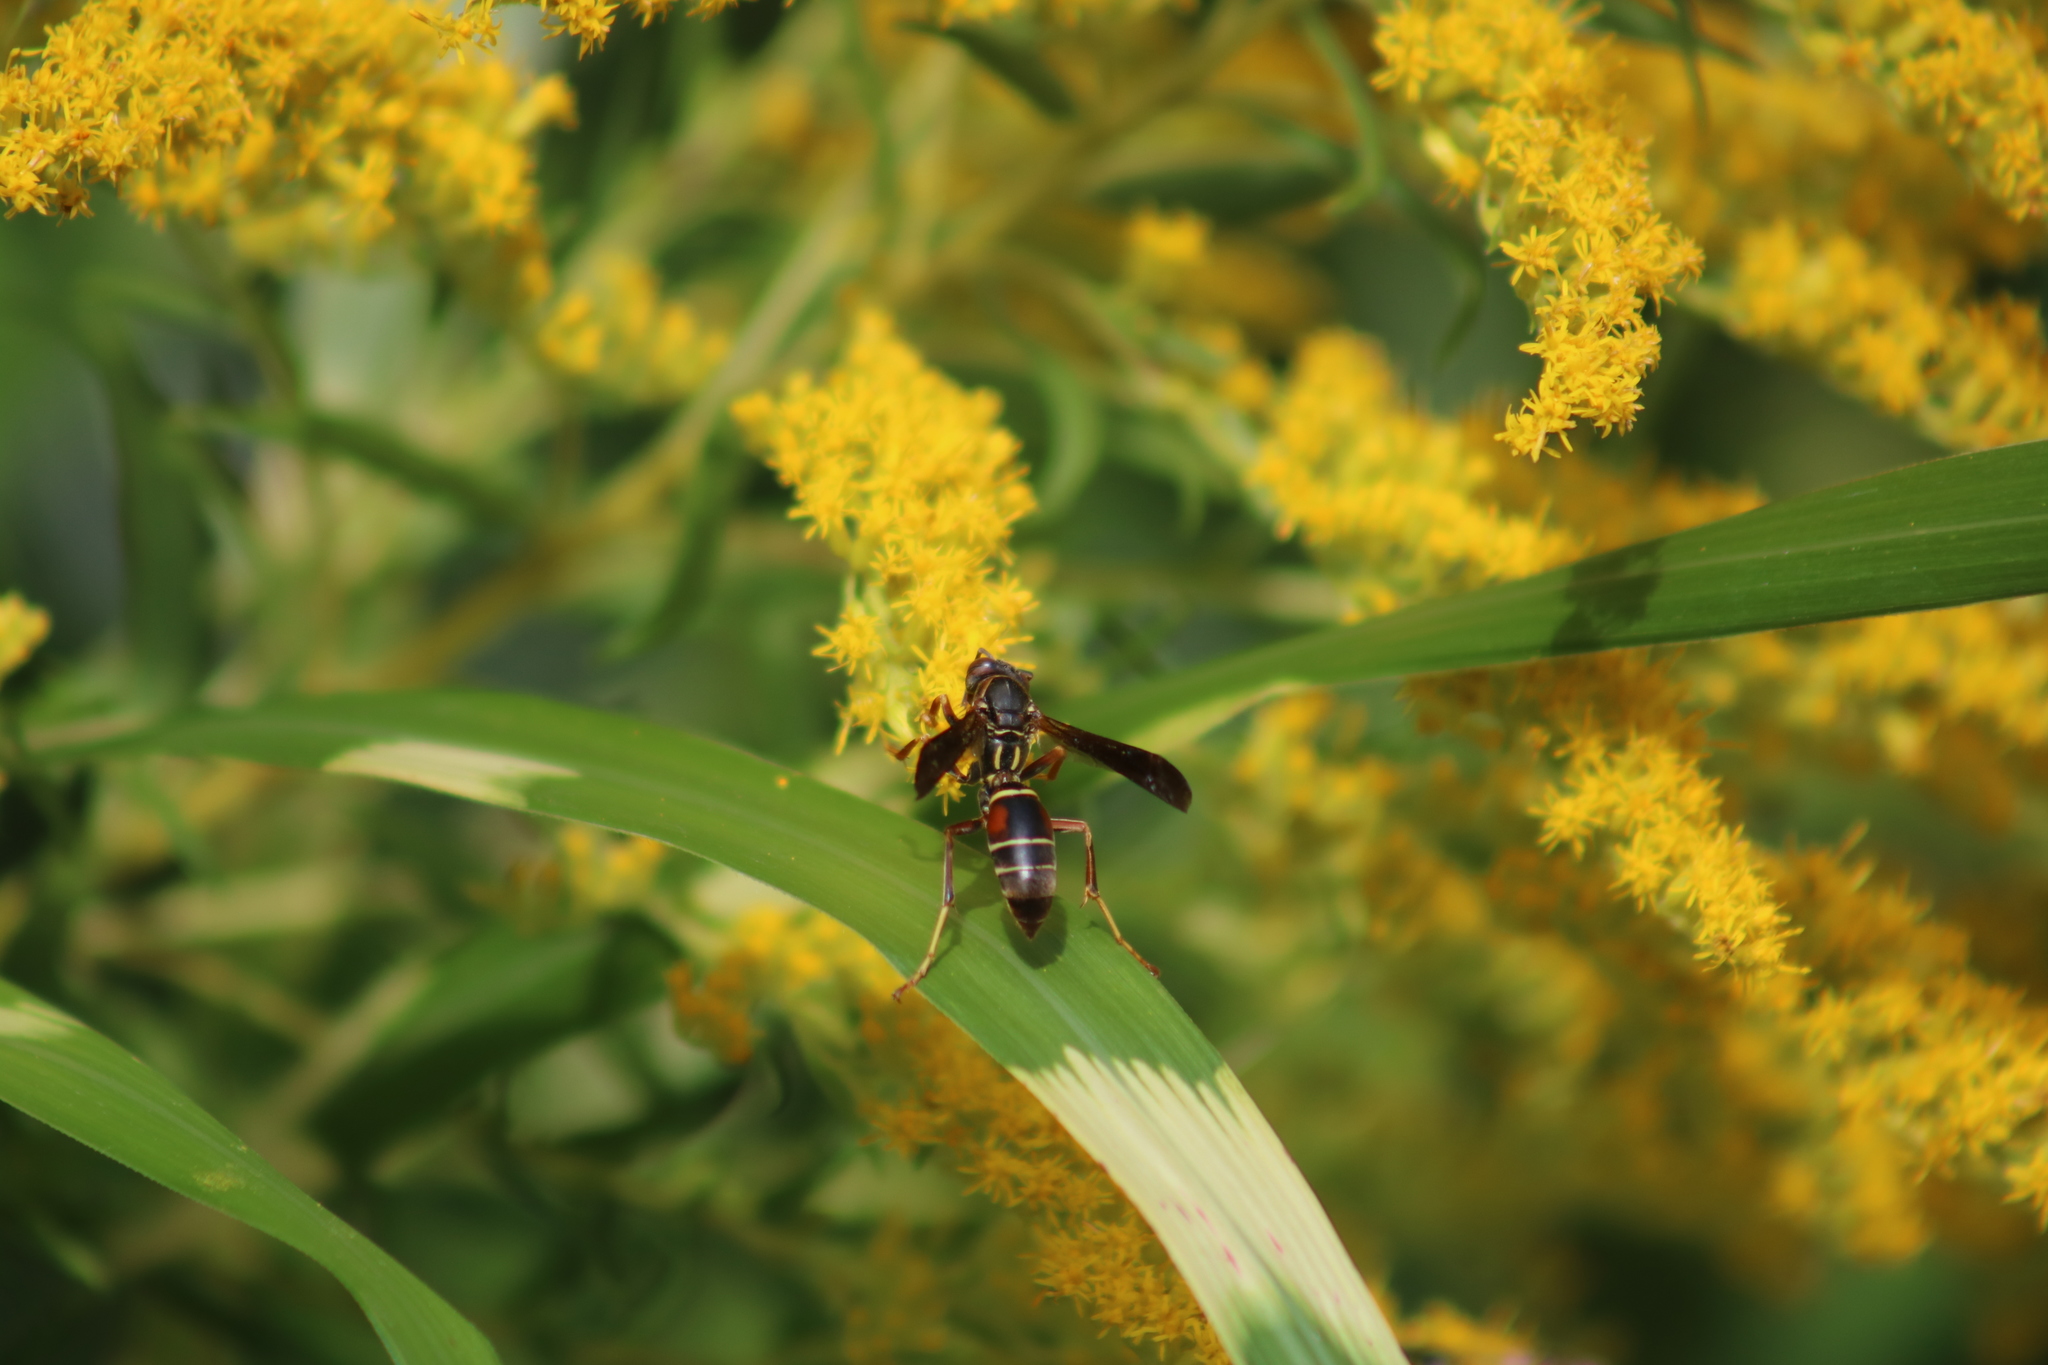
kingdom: Animalia
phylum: Arthropoda
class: Insecta
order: Hymenoptera
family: Eumenidae
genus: Polistes
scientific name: Polistes fuscatus
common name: Dark paper wasp
